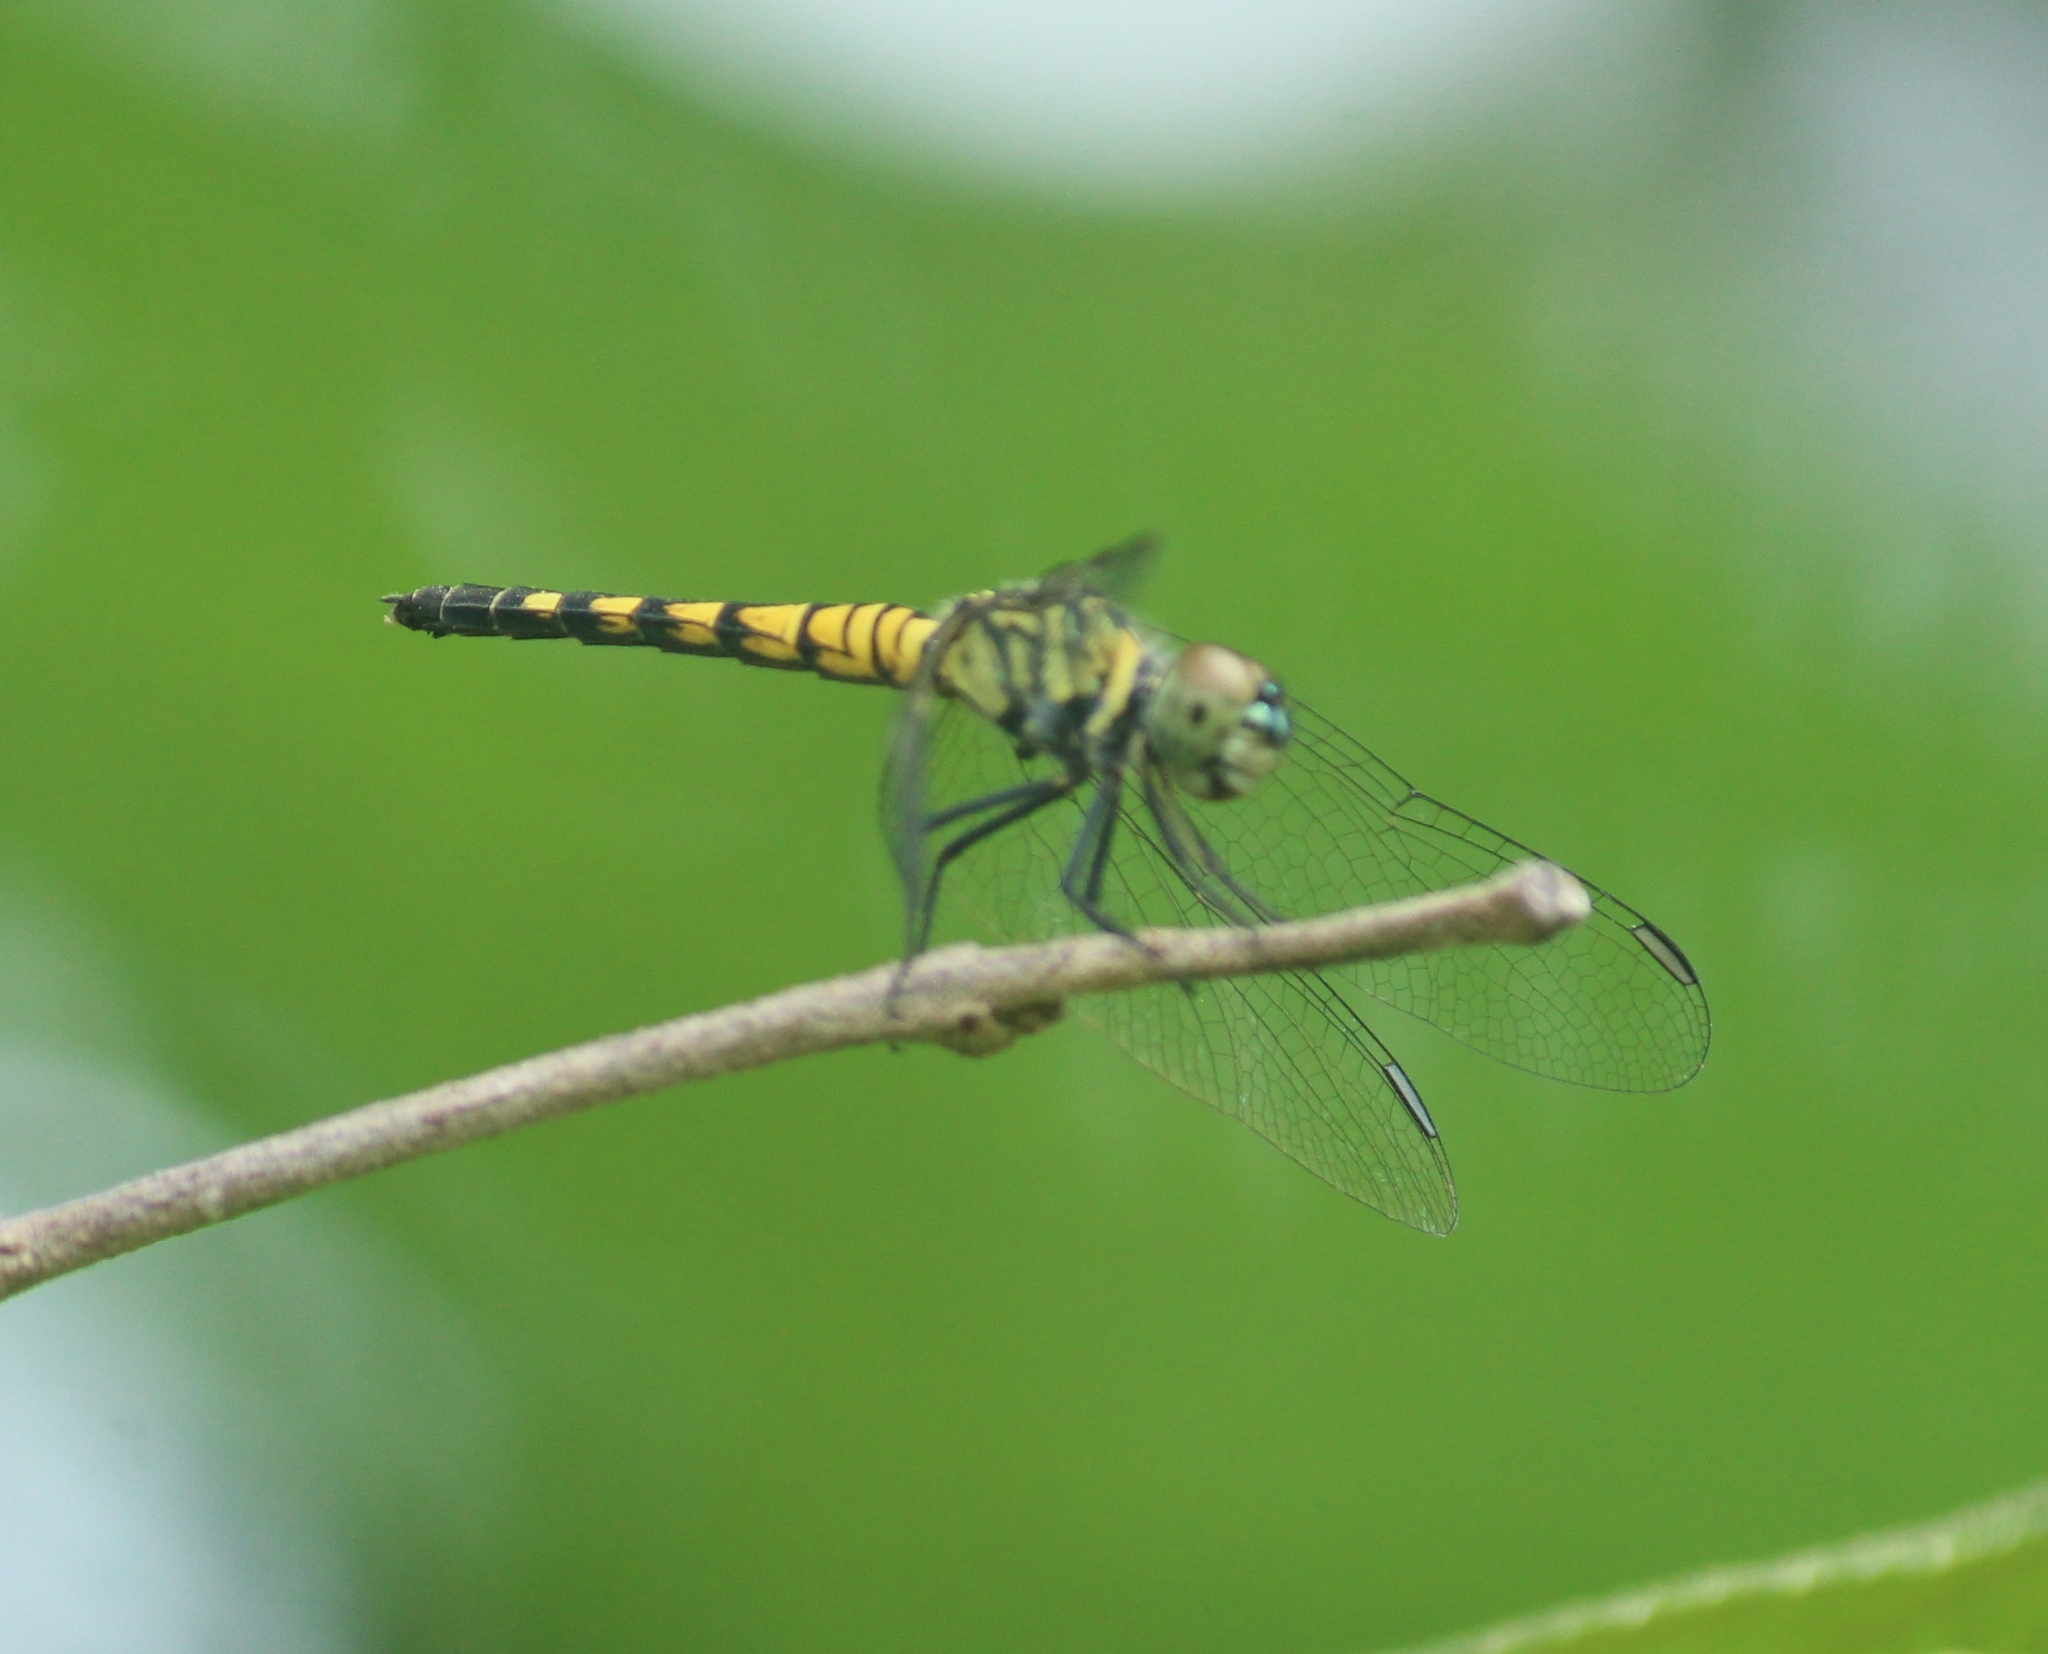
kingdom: Animalia
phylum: Arthropoda
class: Insecta
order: Odonata
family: Libellulidae
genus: Brachydiplax
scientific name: Brachydiplax sobrina
